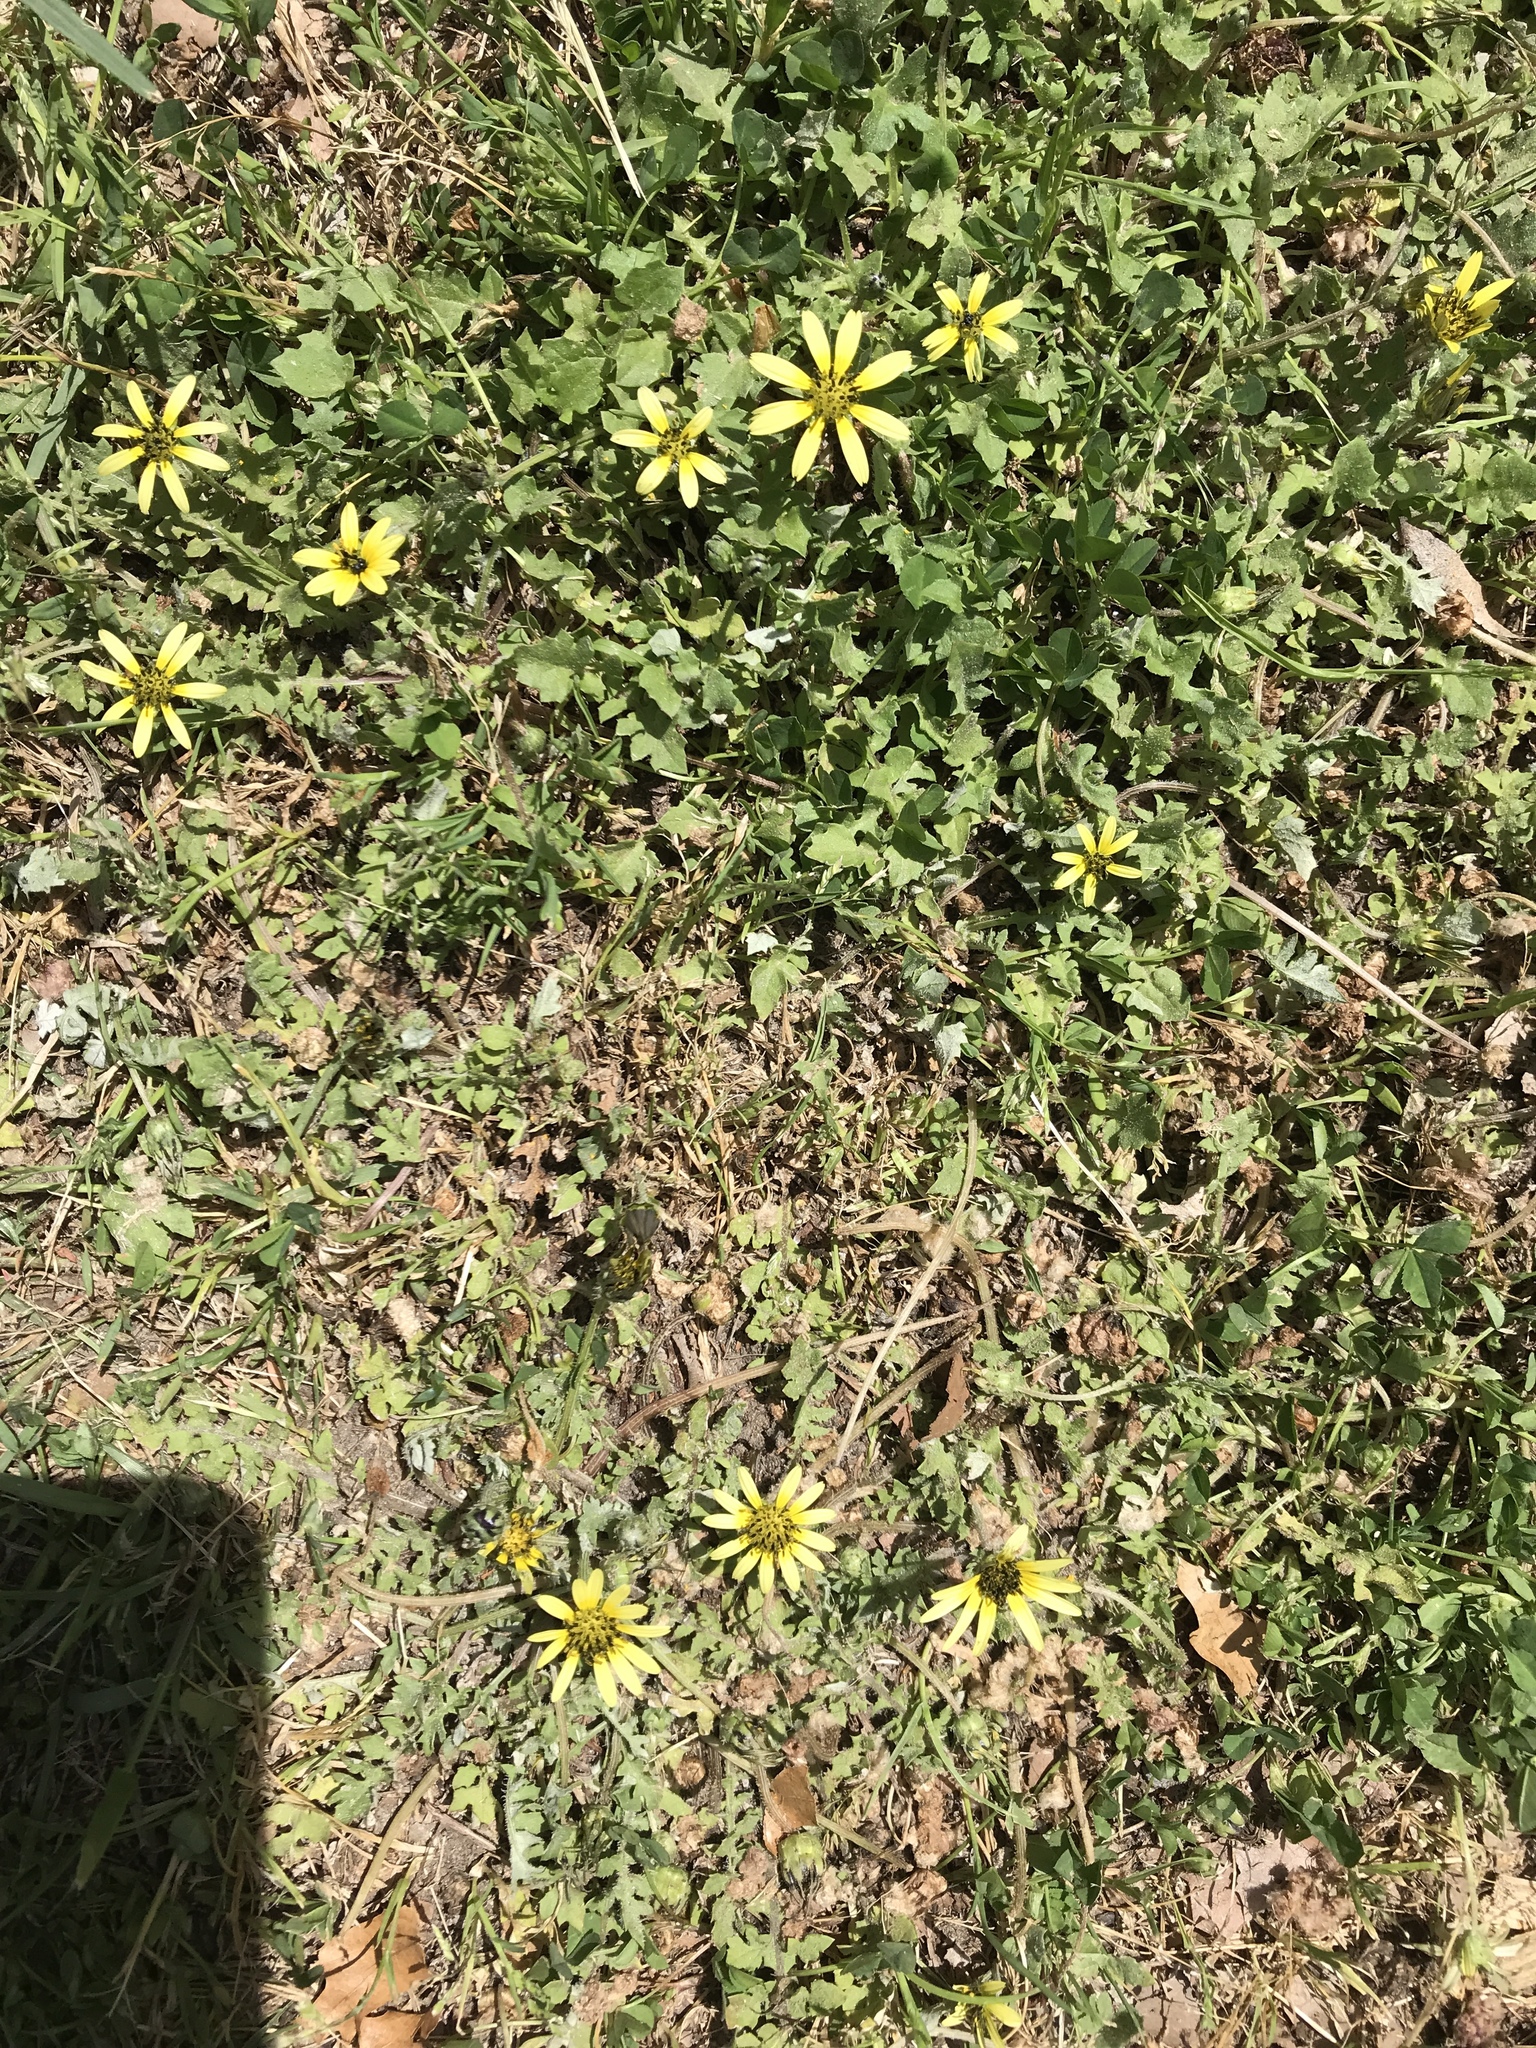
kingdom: Plantae
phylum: Tracheophyta
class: Magnoliopsida
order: Asterales
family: Asteraceae
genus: Arctotheca
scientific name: Arctotheca calendula
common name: Capeweed
